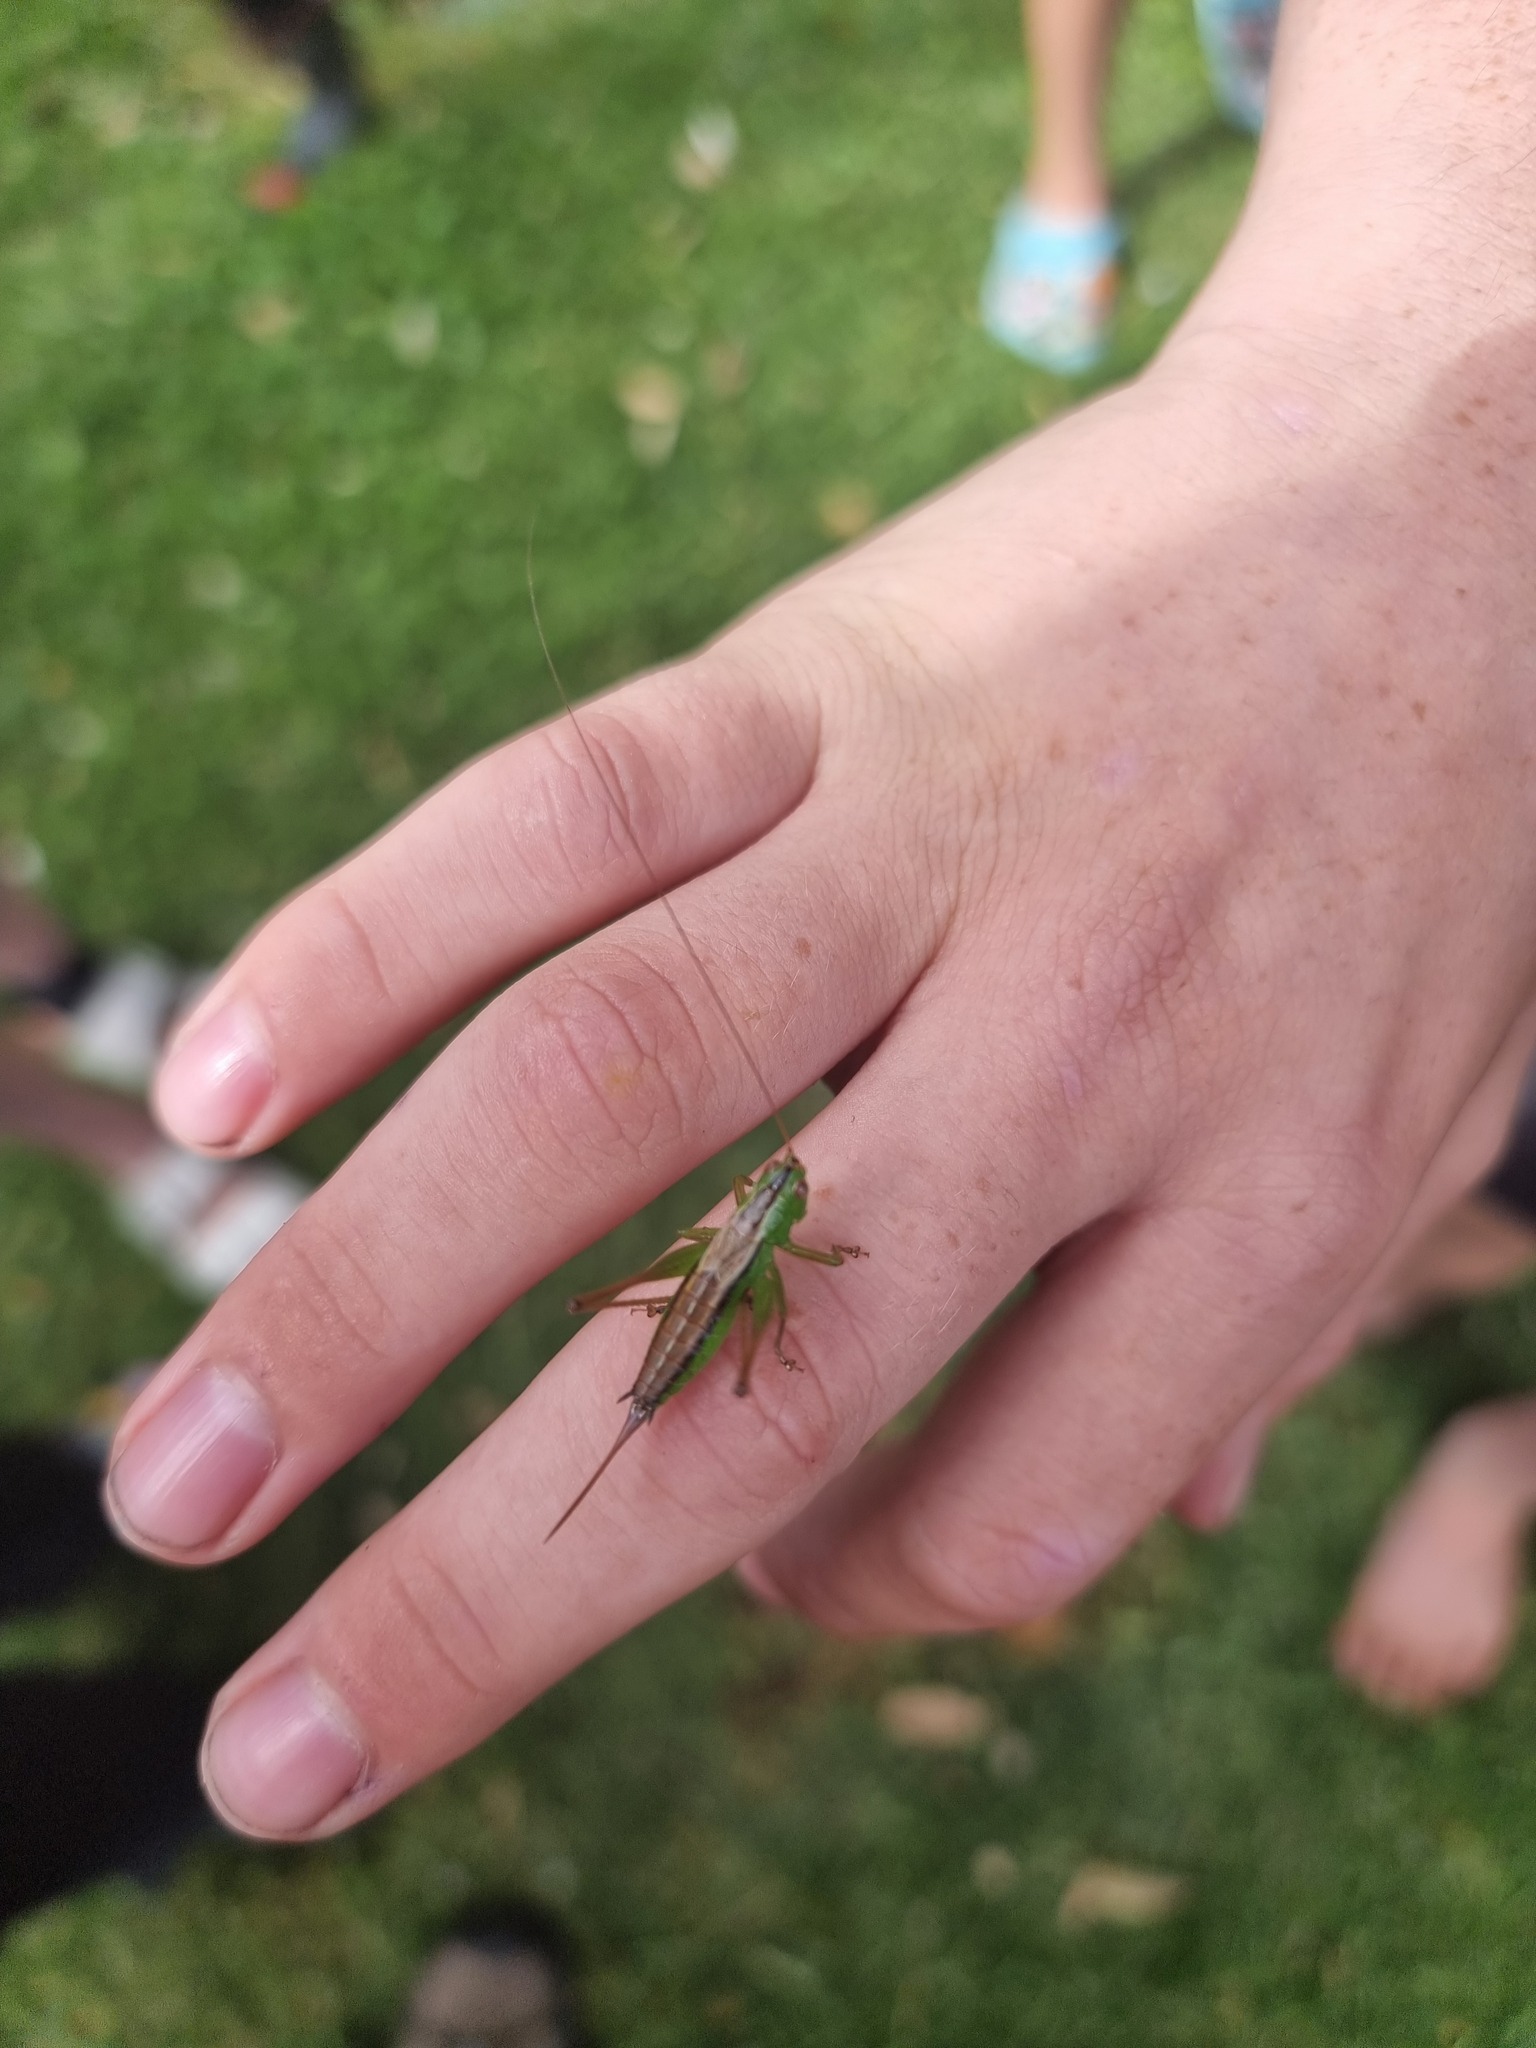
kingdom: Animalia
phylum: Arthropoda
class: Insecta
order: Orthoptera
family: Tettigoniidae
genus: Conocephalus
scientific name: Conocephalus semivittatus
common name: Blackish meadow katydid
